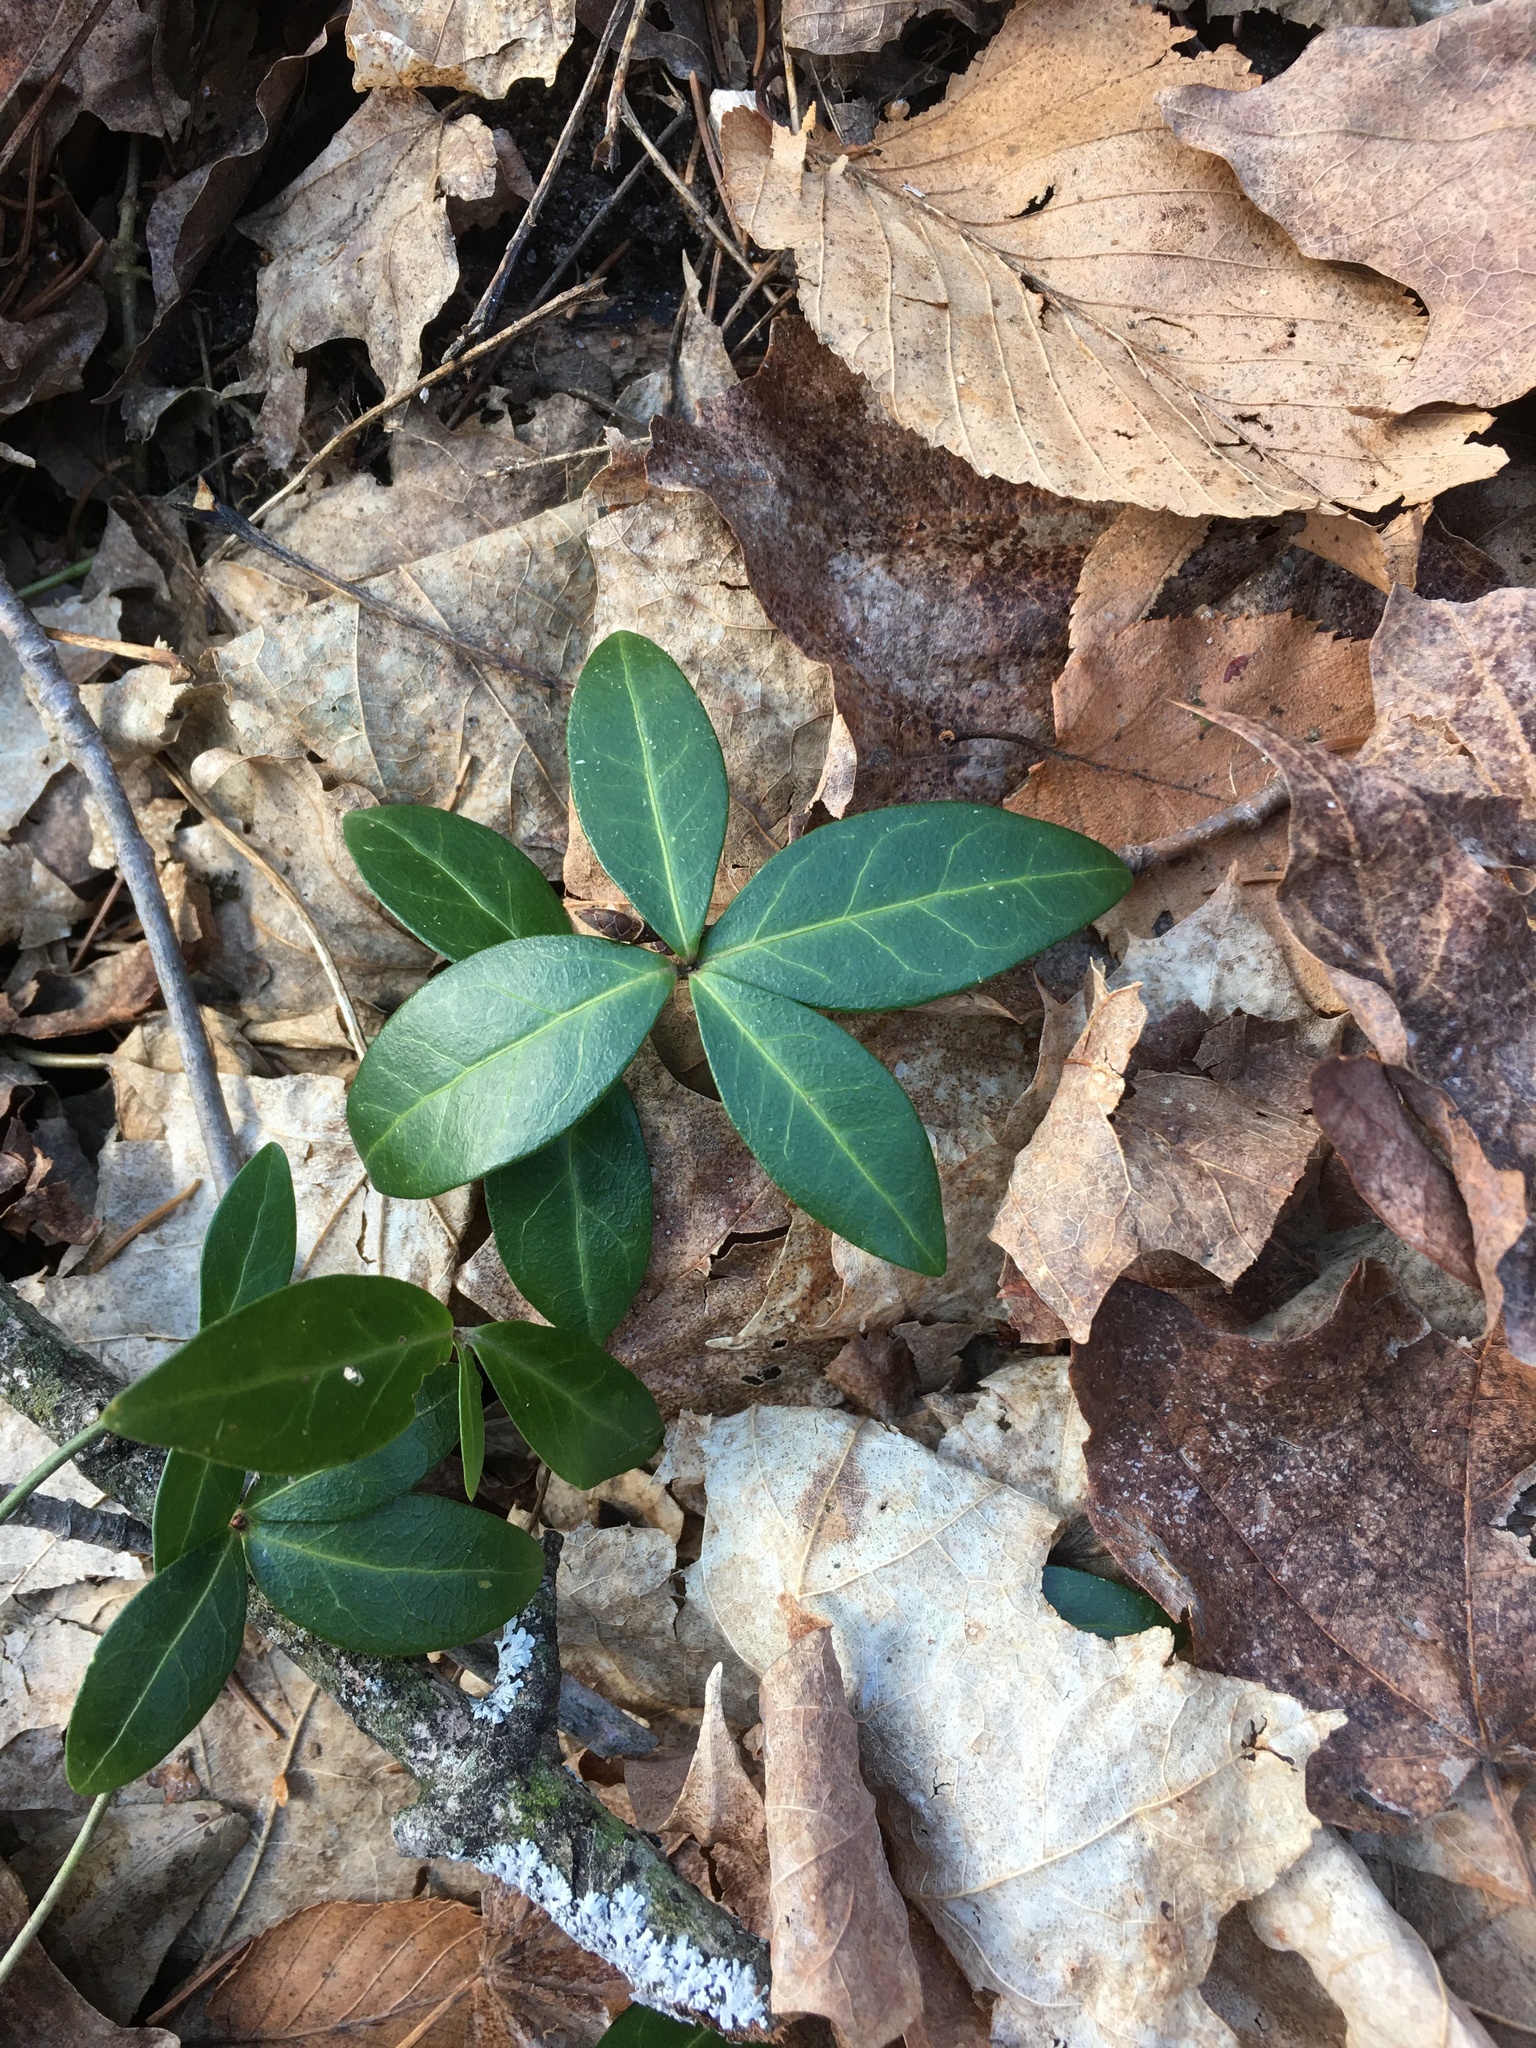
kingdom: Plantae
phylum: Tracheophyta
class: Magnoliopsida
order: Gentianales
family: Apocynaceae
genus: Vinca
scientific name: Vinca minor
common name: Lesser periwinkle
